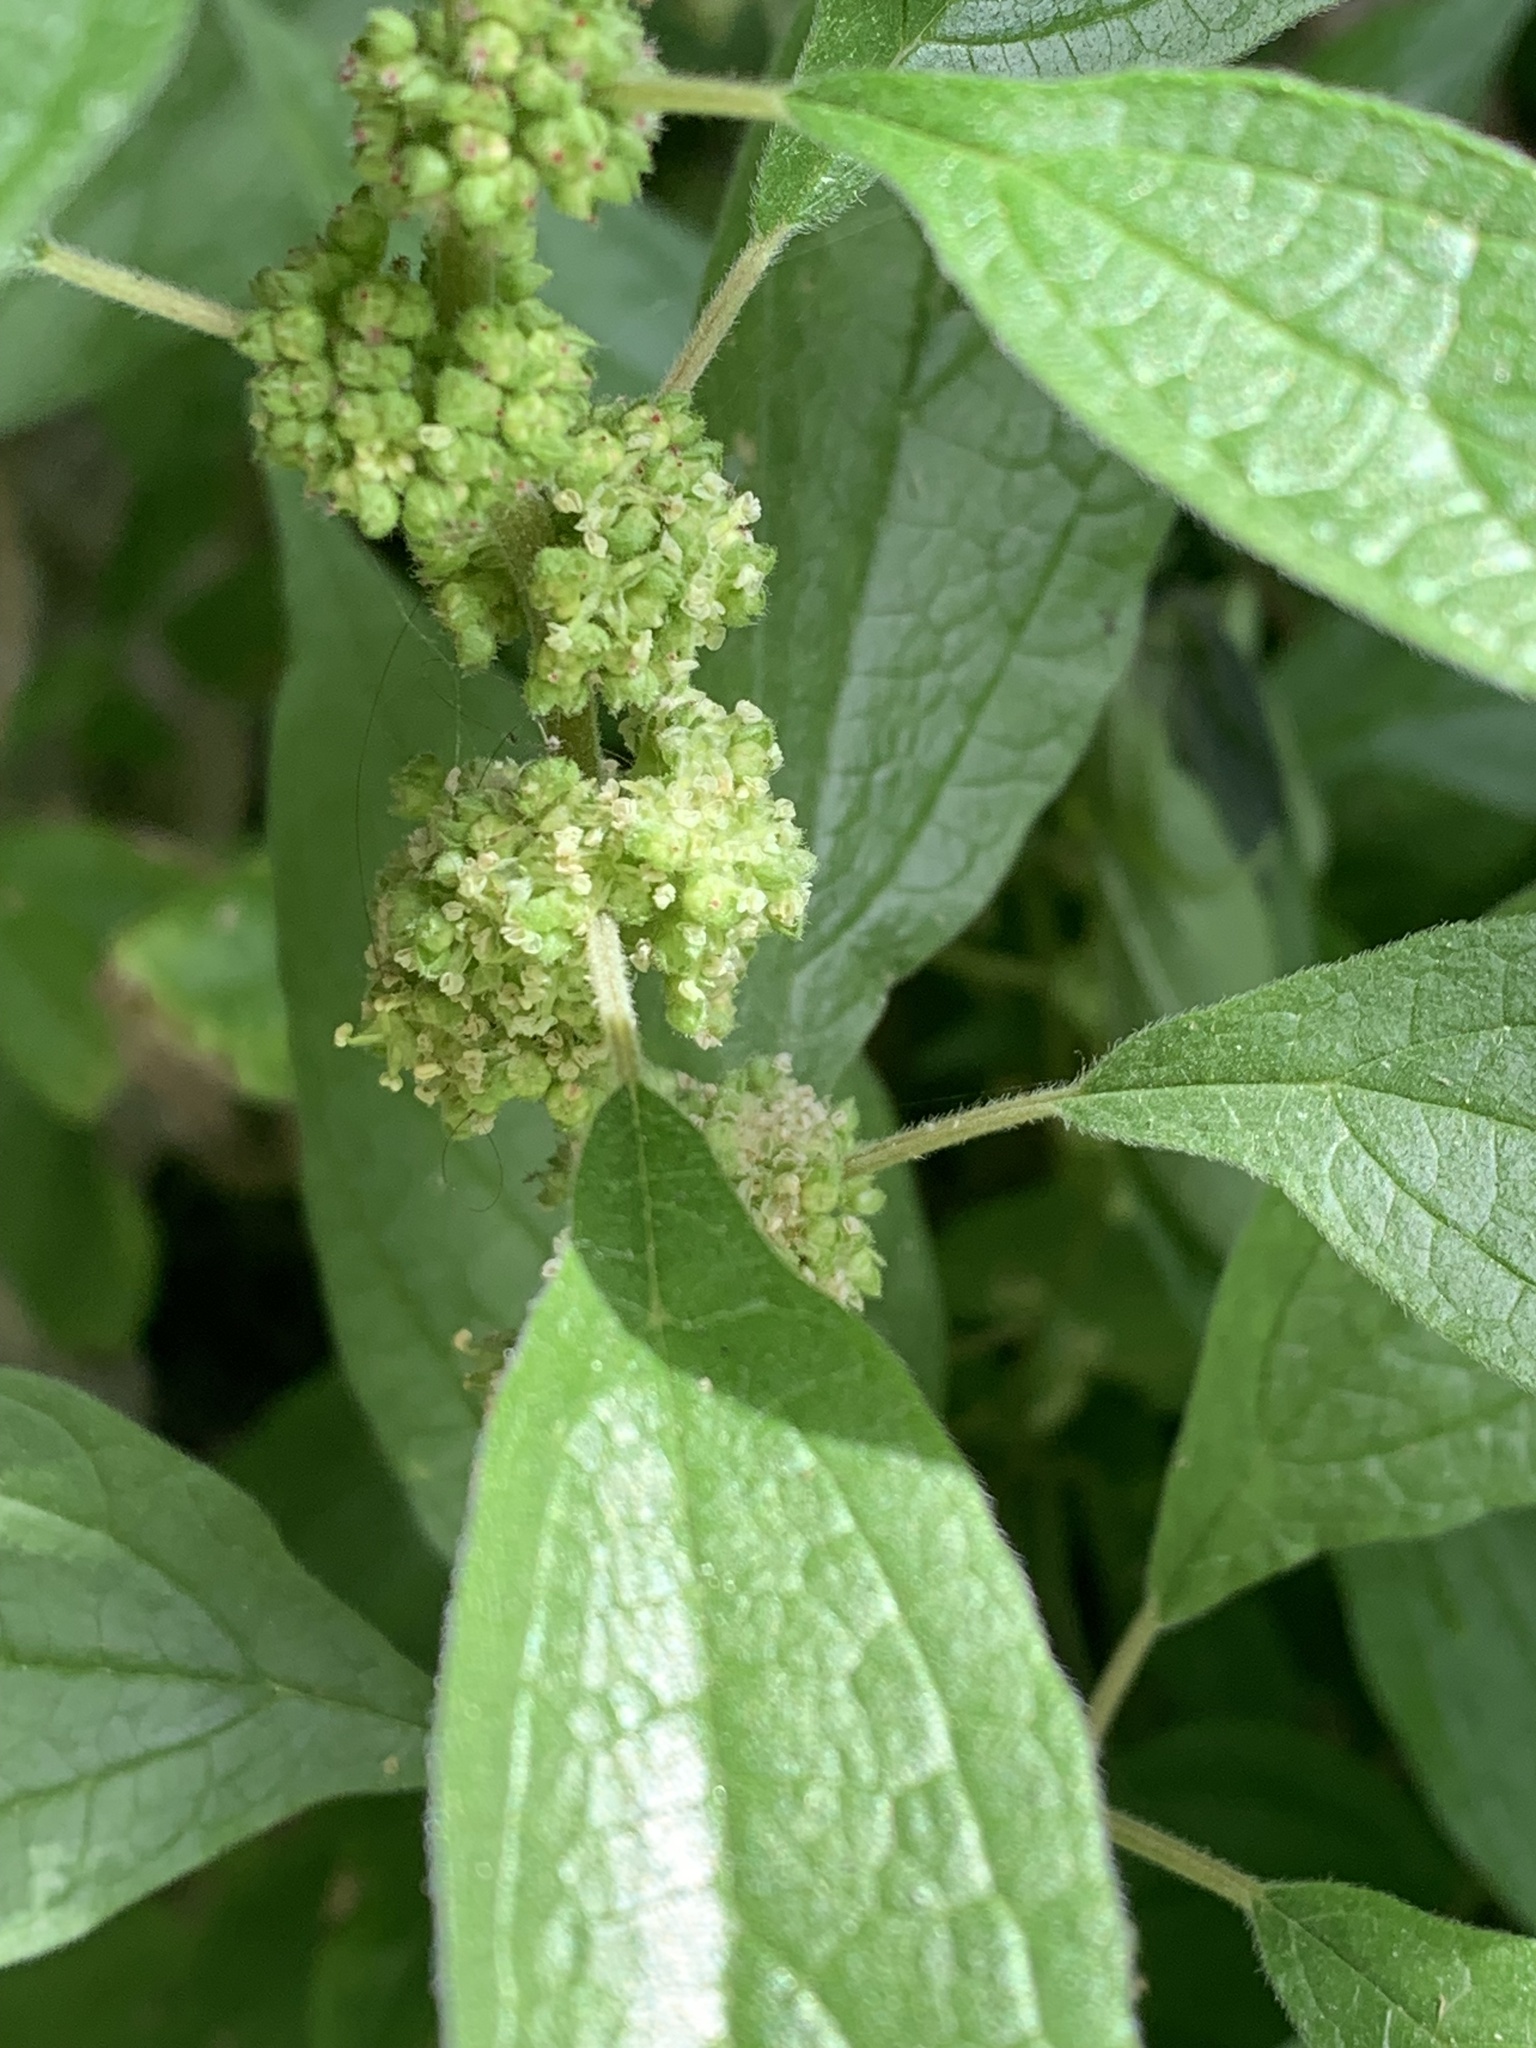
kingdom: Plantae
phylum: Tracheophyta
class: Magnoliopsida
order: Rosales
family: Urticaceae
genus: Parietaria
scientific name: Parietaria officinalis
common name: Eastern pellitory-of-the-wall
